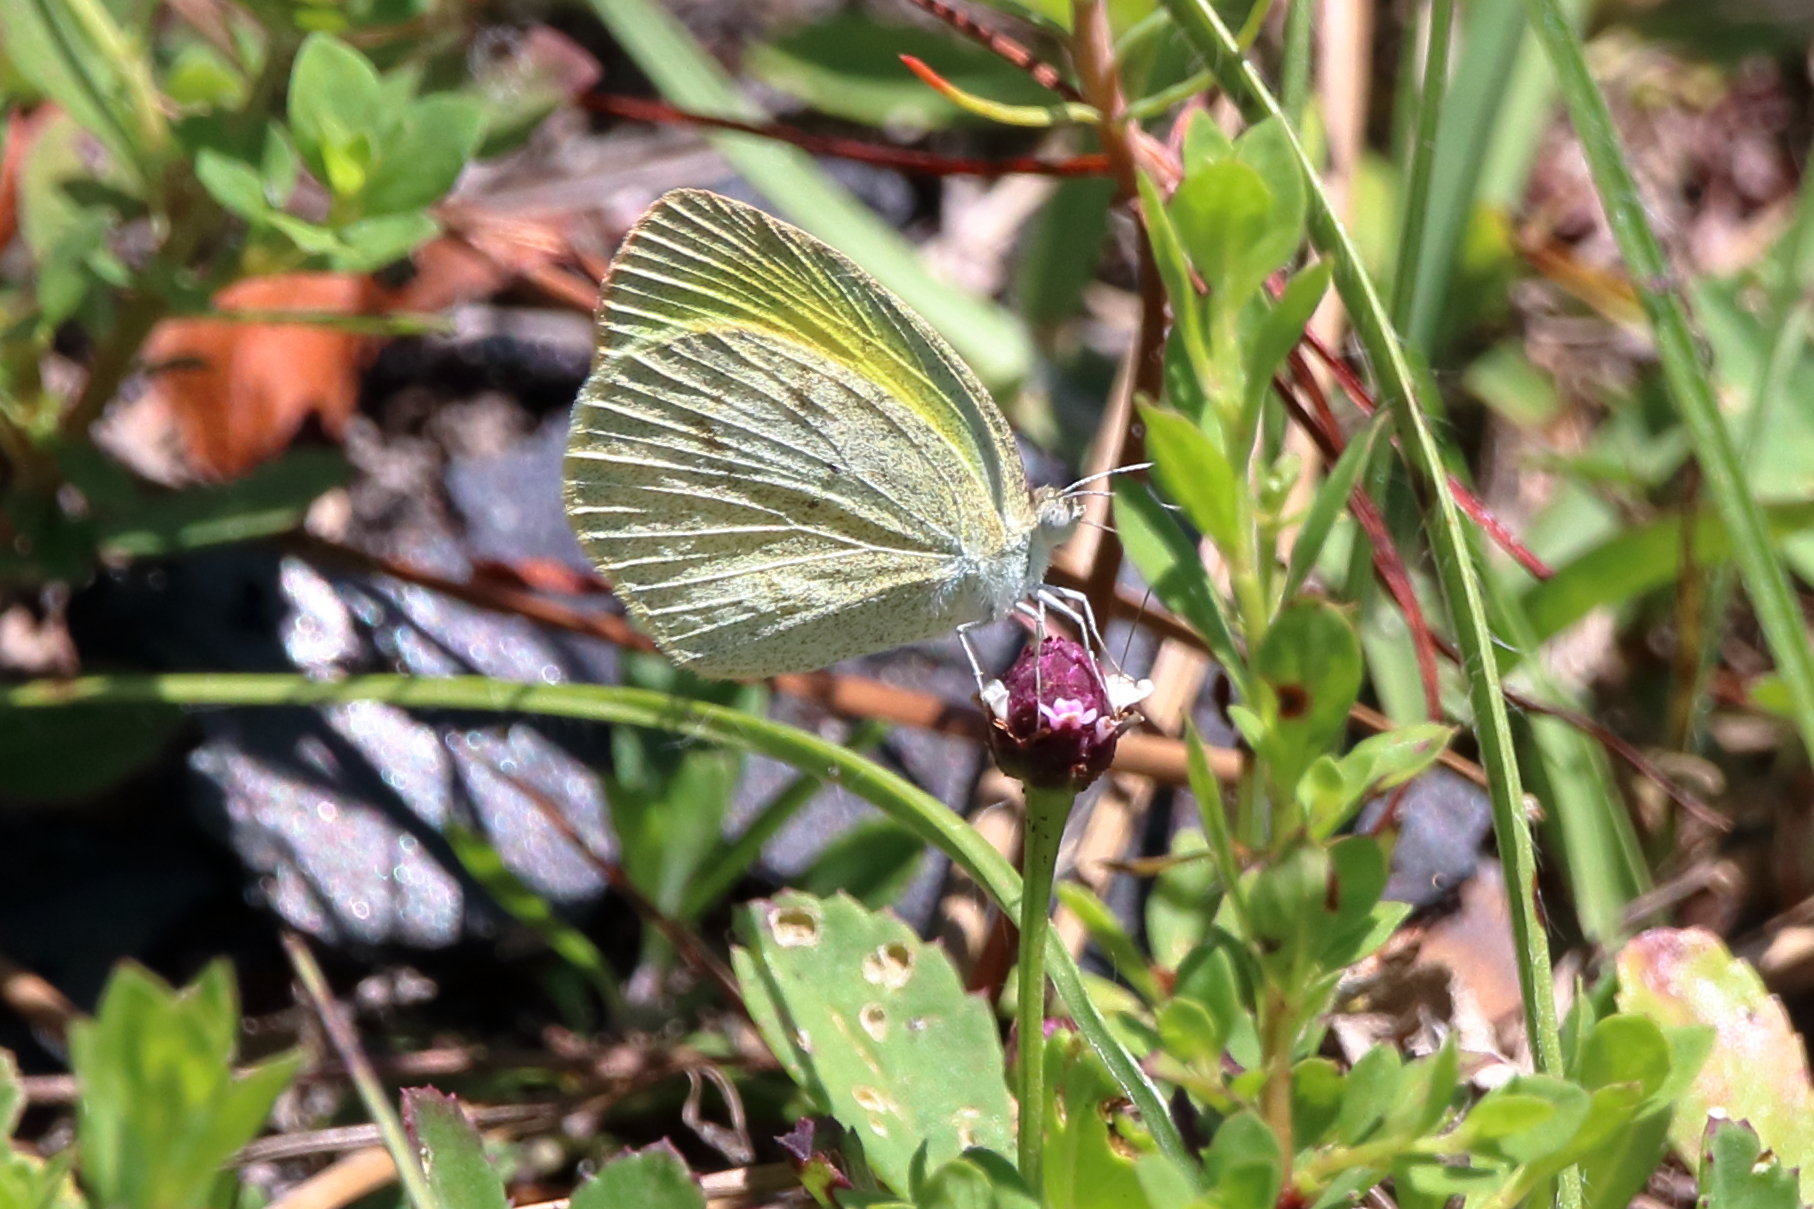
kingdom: Animalia
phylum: Arthropoda
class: Insecta
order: Lepidoptera
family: Pieridae
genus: Eurema
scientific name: Eurema daira
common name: Barred sulphur
